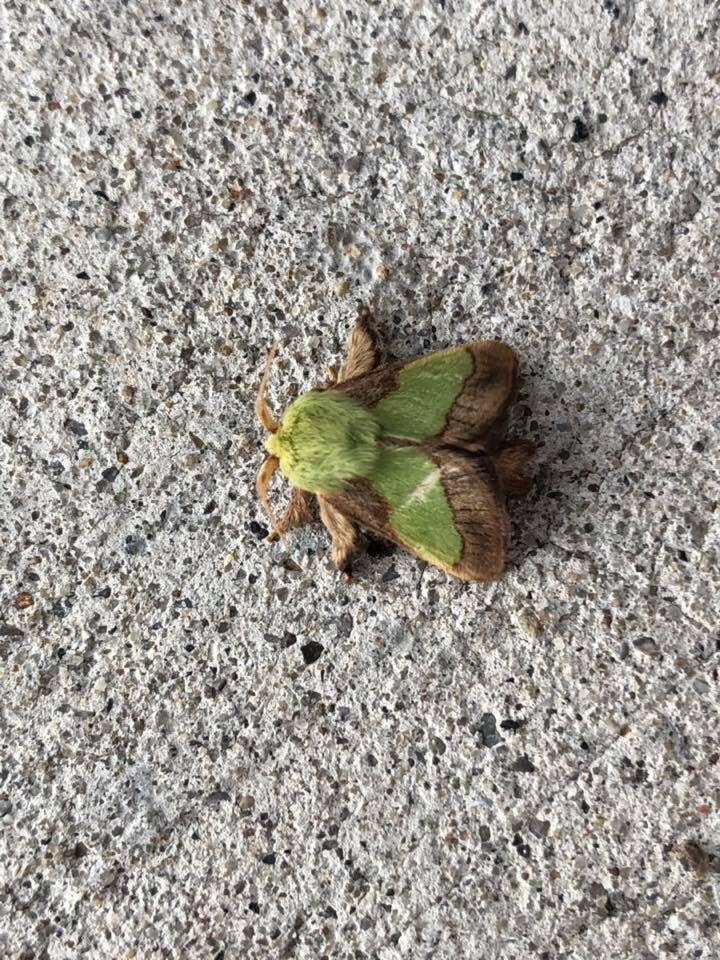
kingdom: Animalia
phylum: Arthropoda
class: Insecta
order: Lepidoptera
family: Limacodidae
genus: Parasa
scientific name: Parasa chloris
